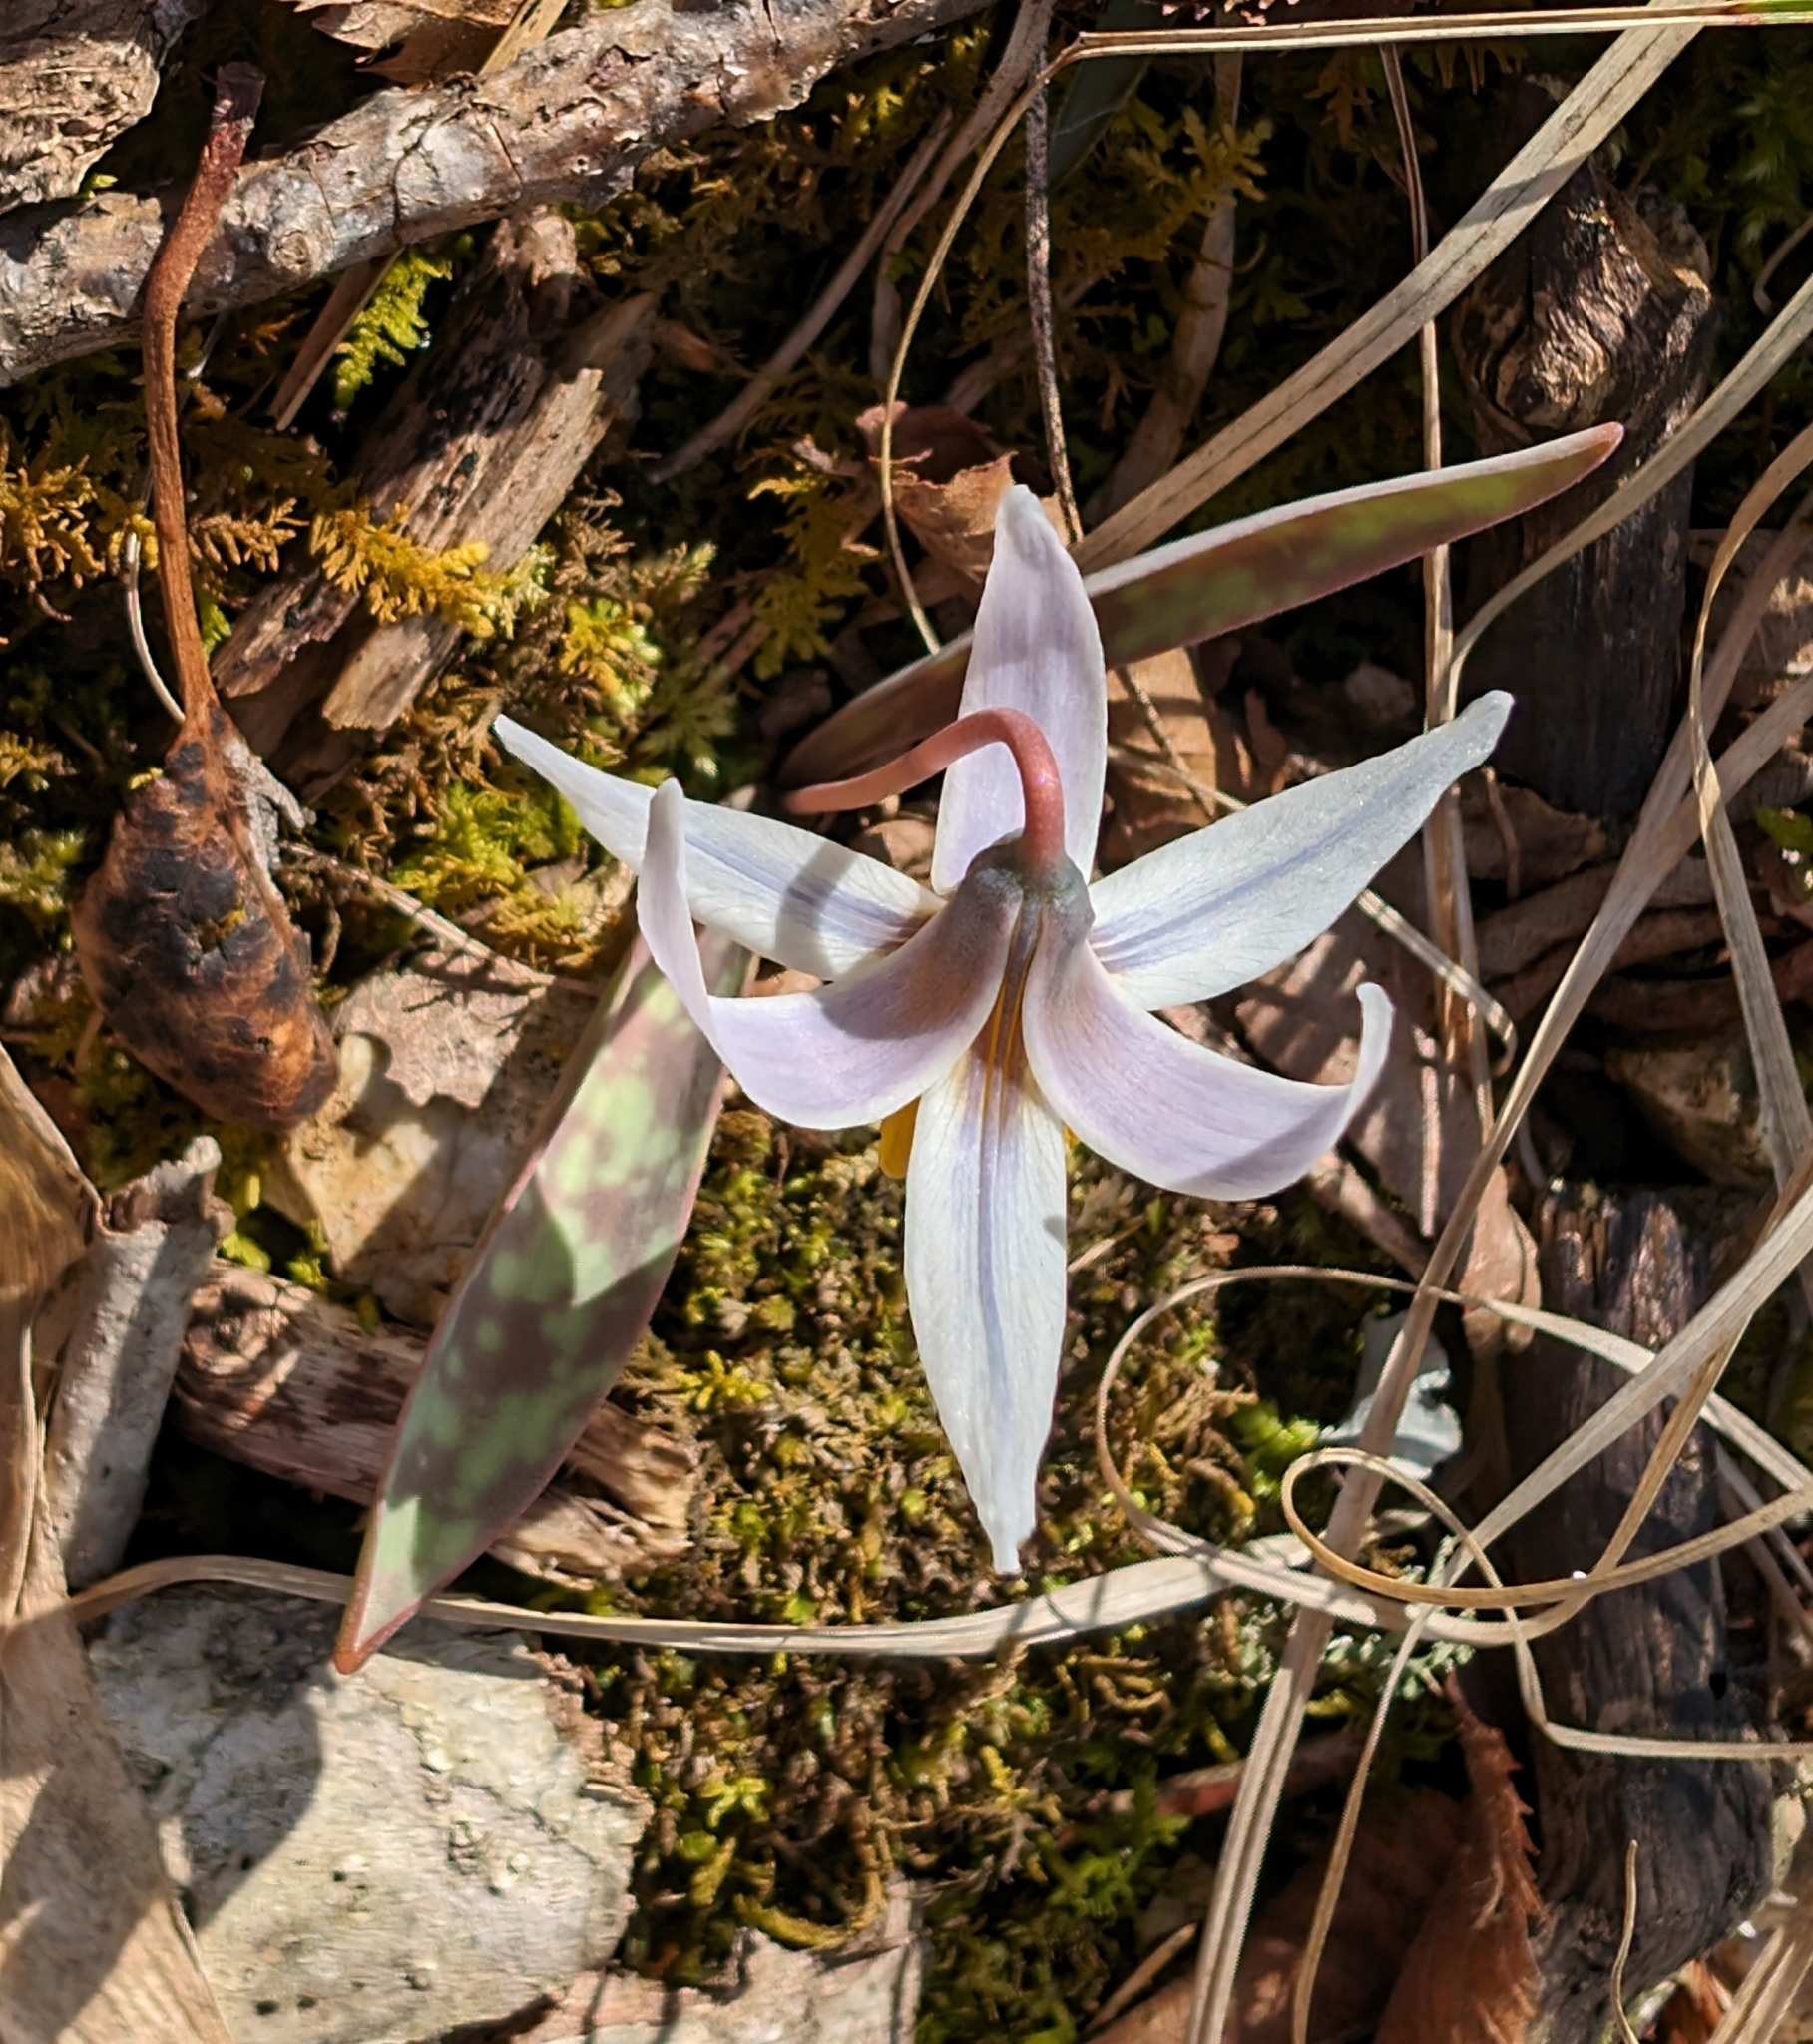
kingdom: Plantae
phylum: Tracheophyta
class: Liliopsida
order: Liliales
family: Liliaceae
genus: Erythronium
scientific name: Erythronium albidum
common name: White trout-lily
